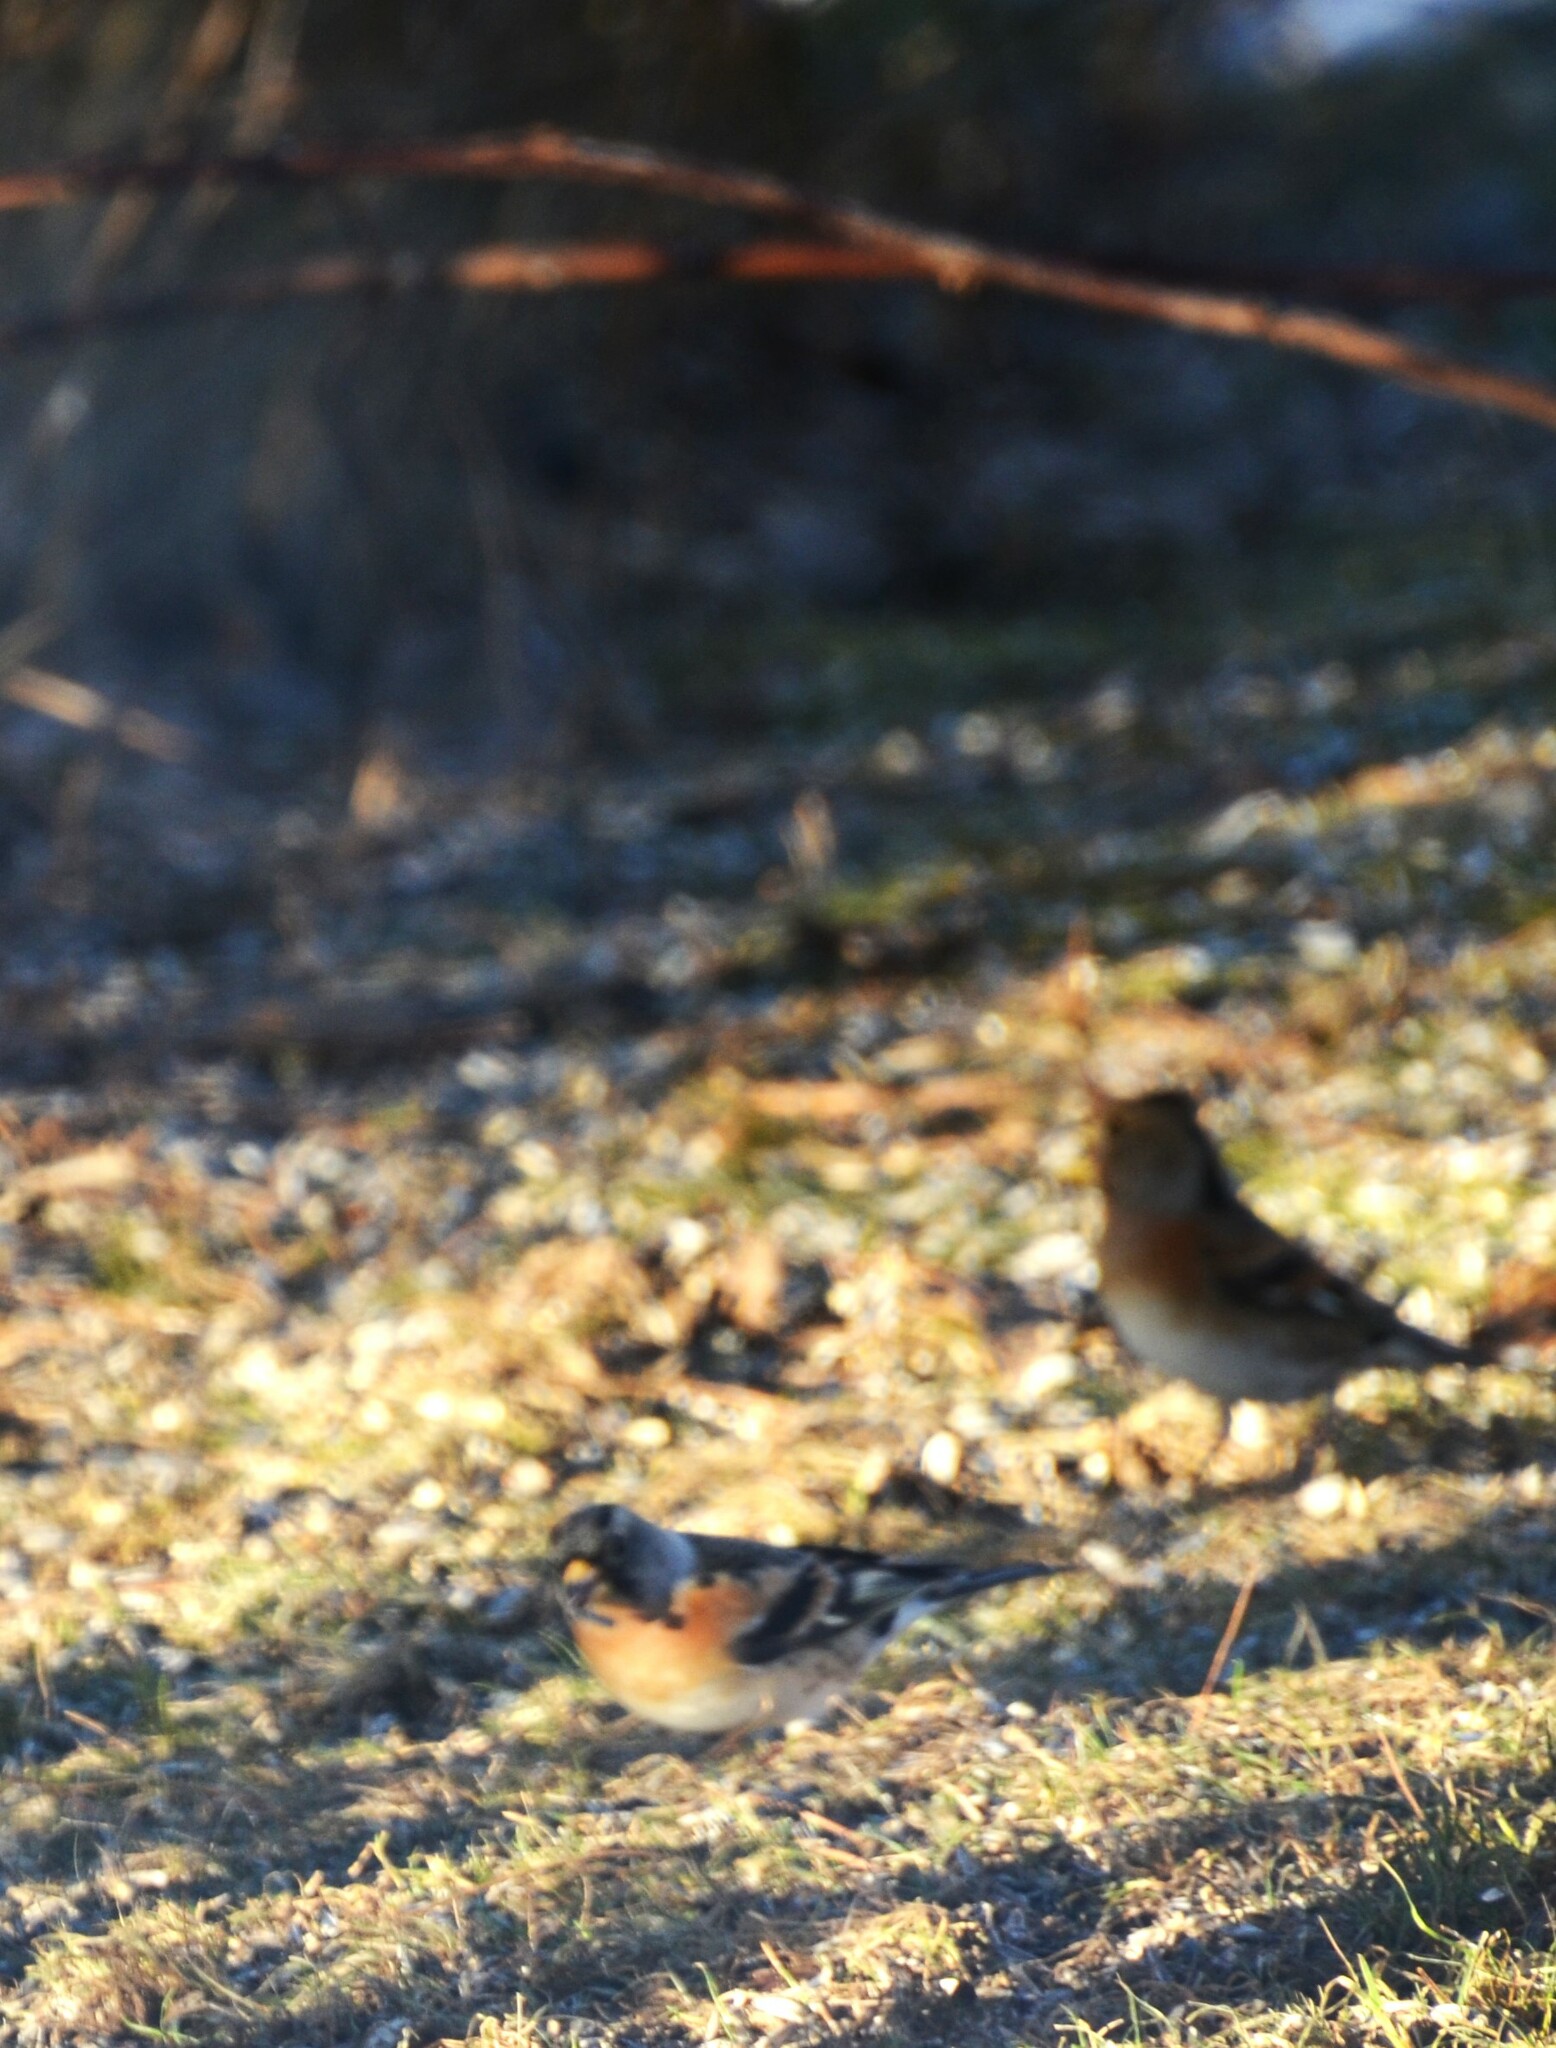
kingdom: Animalia
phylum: Chordata
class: Aves
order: Passeriformes
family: Fringillidae
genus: Fringilla
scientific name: Fringilla montifringilla
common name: Brambling
